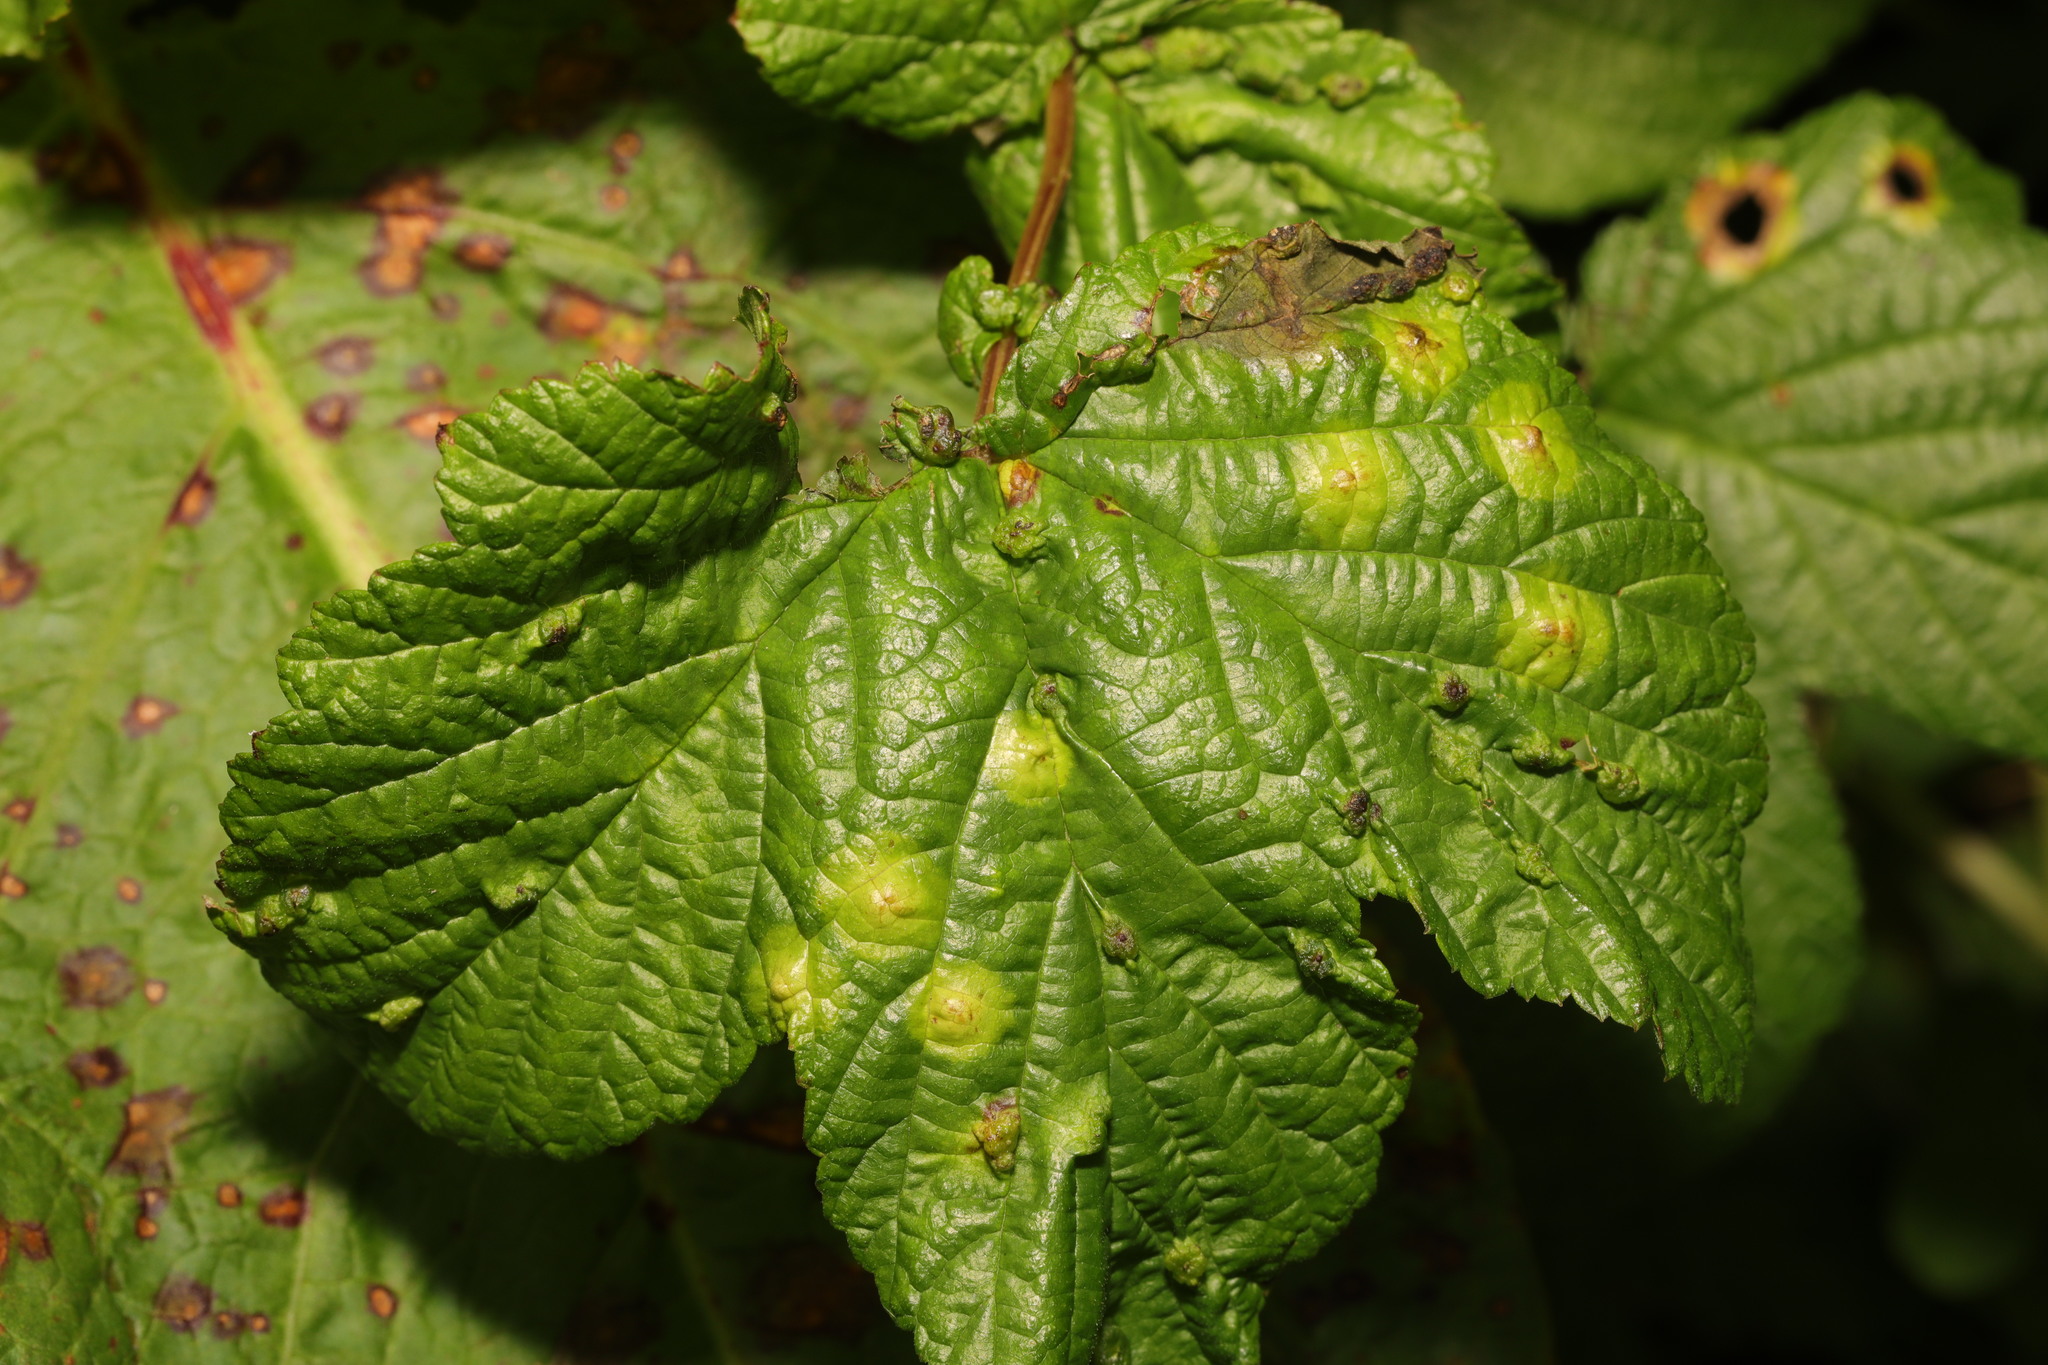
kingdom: Animalia
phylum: Arthropoda
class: Insecta
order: Diptera
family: Cecidomyiidae
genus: Dasineura
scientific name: Dasineura pustulans
